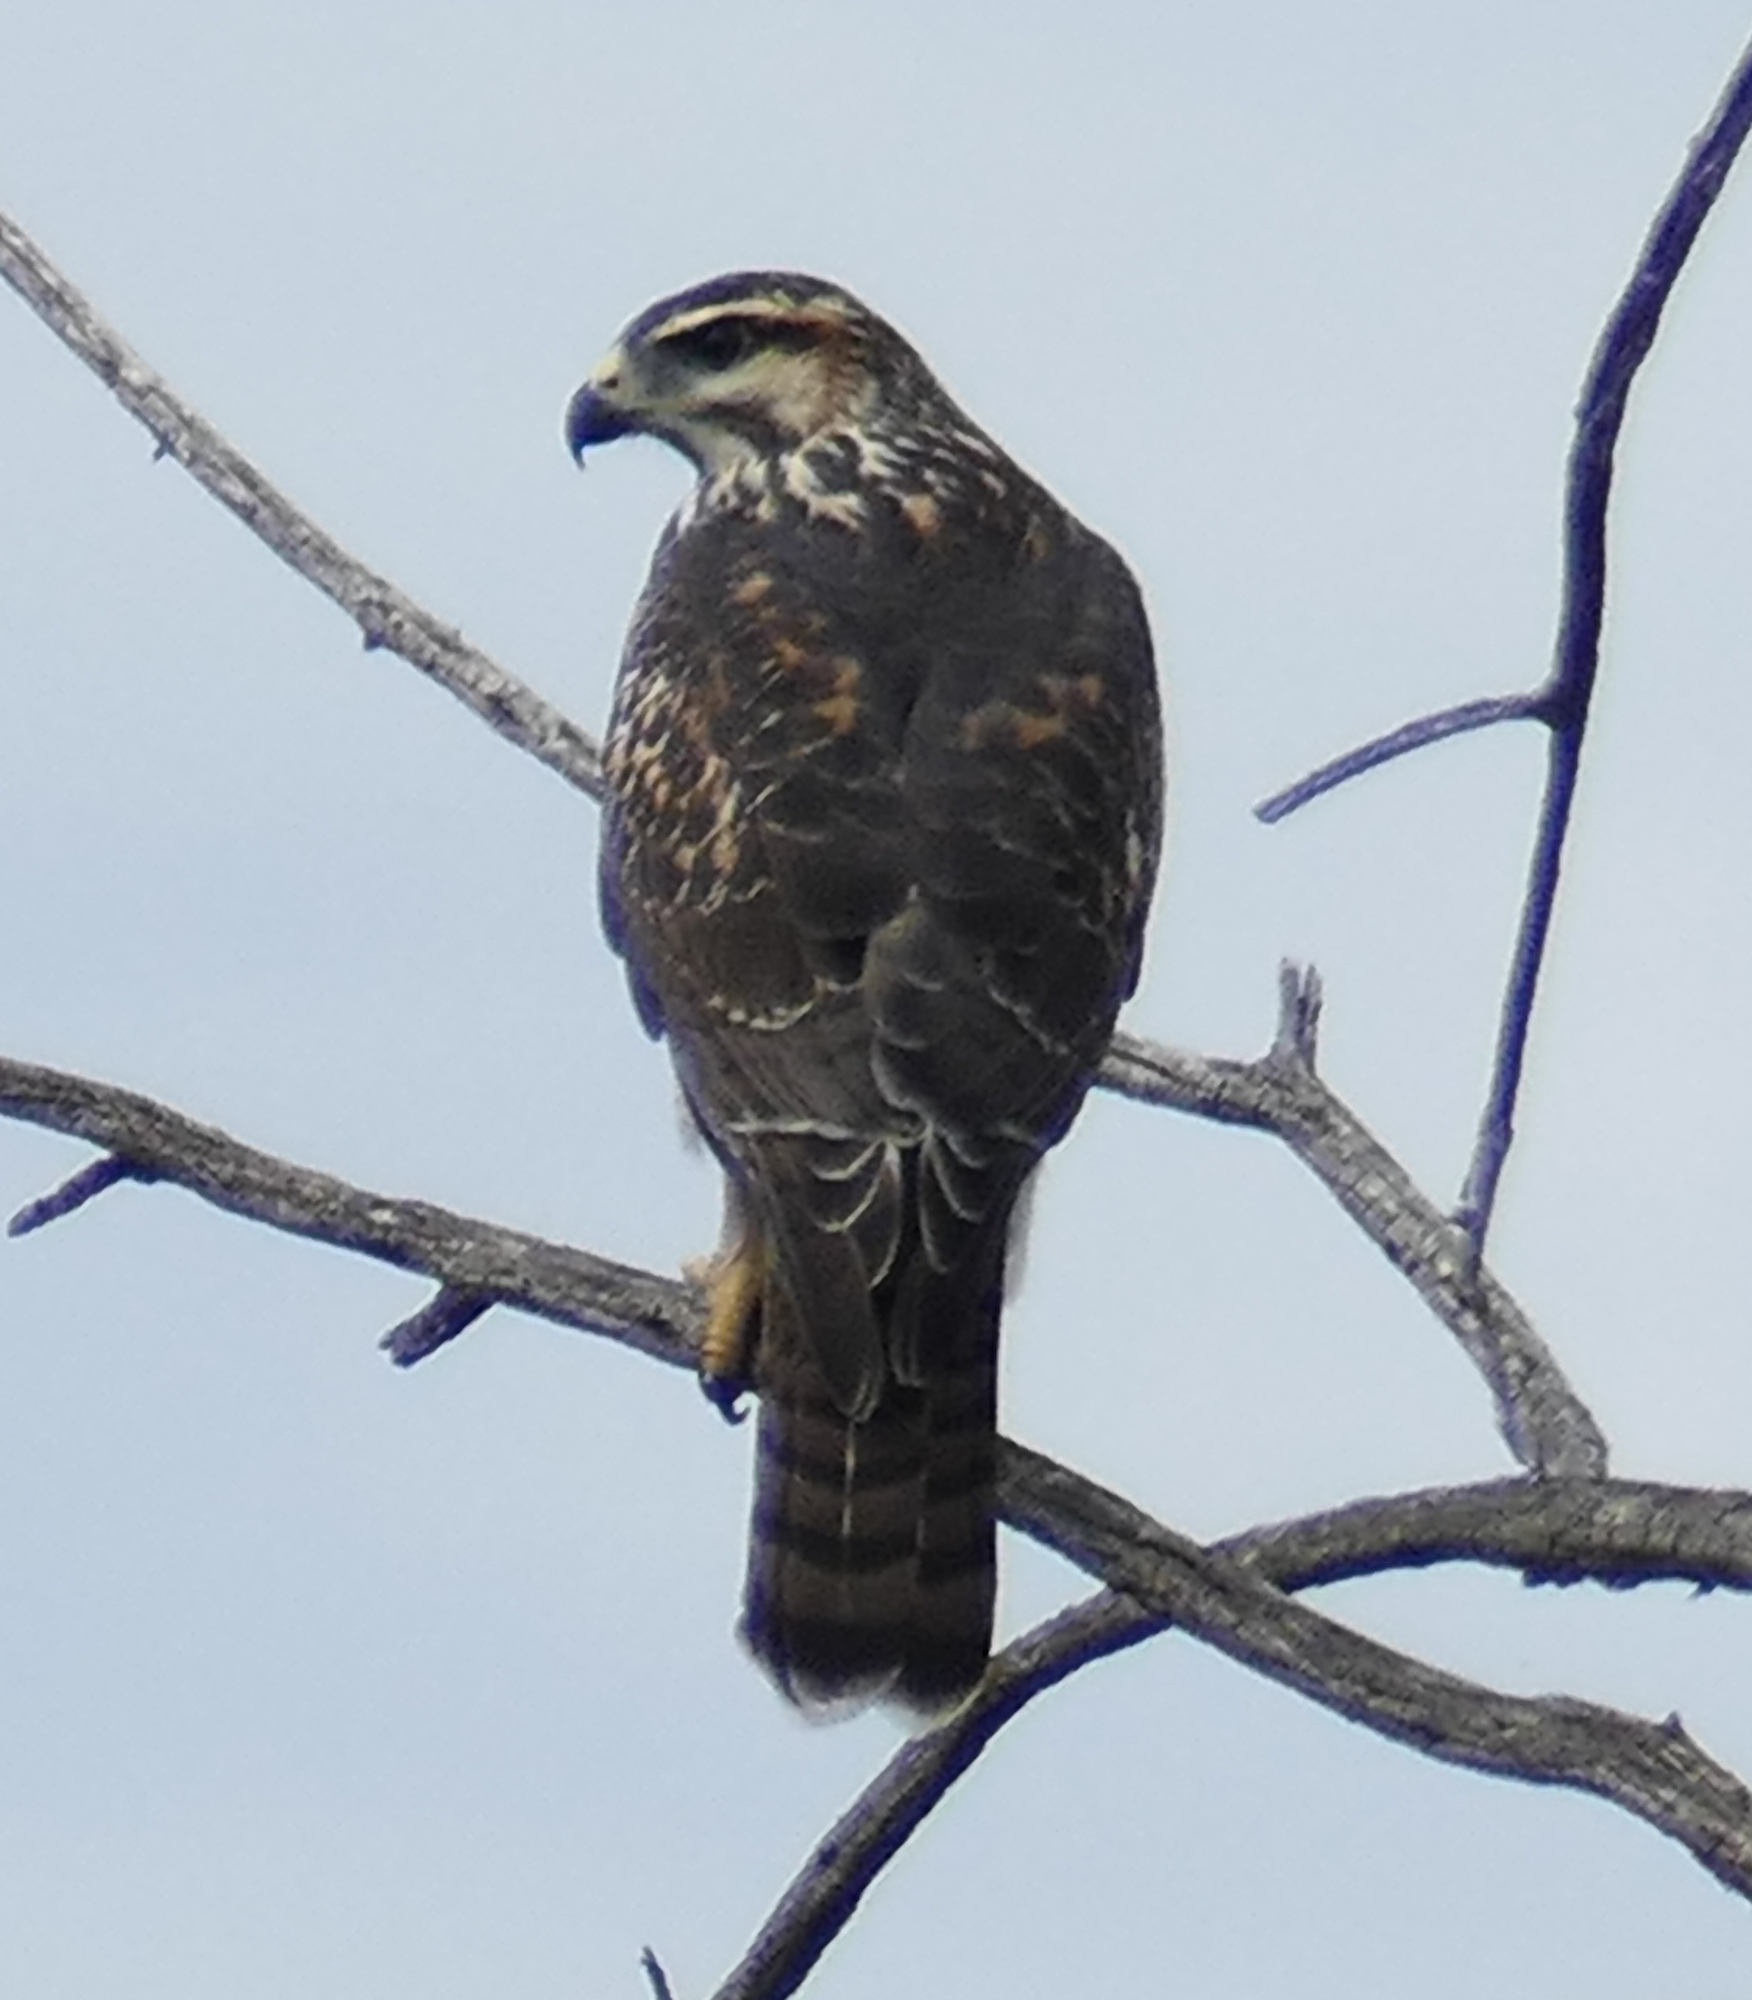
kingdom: Animalia
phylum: Chordata
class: Aves
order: Accipitriformes
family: Accipitridae
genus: Buteo
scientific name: Buteo nitidus
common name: Grey-lined hawk
